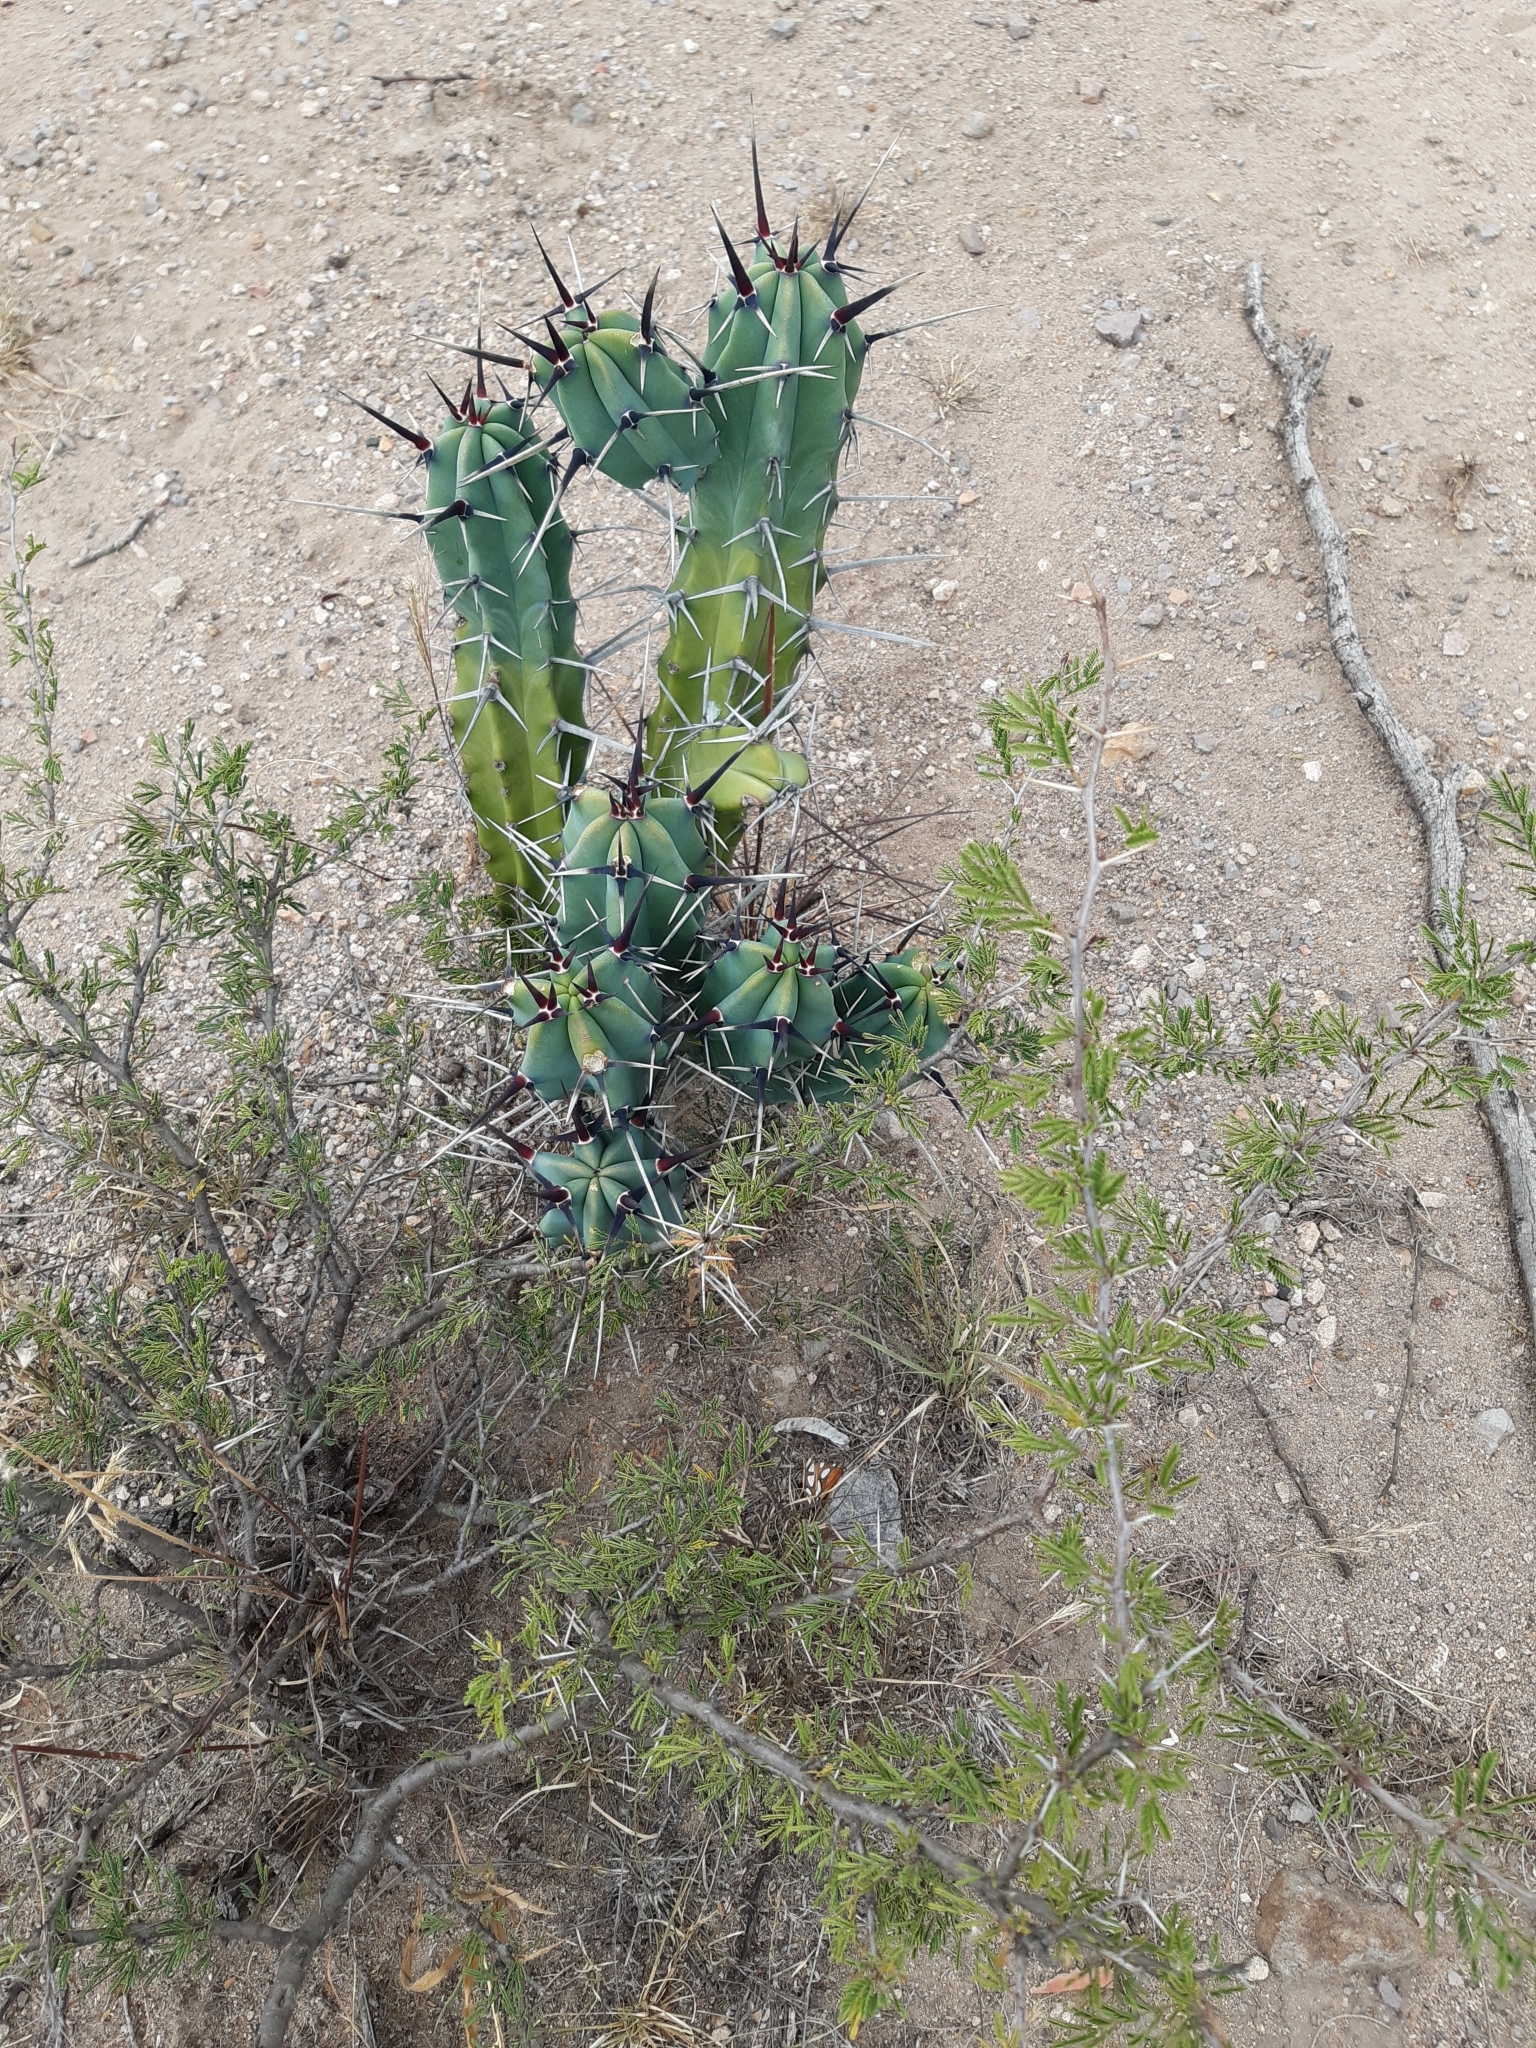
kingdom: Plantae
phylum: Tracheophyta
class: Magnoliopsida
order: Caryophyllales
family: Cactaceae
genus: Myrtillocactus
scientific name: Myrtillocactus geometrizans
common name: Bilberry cactus
